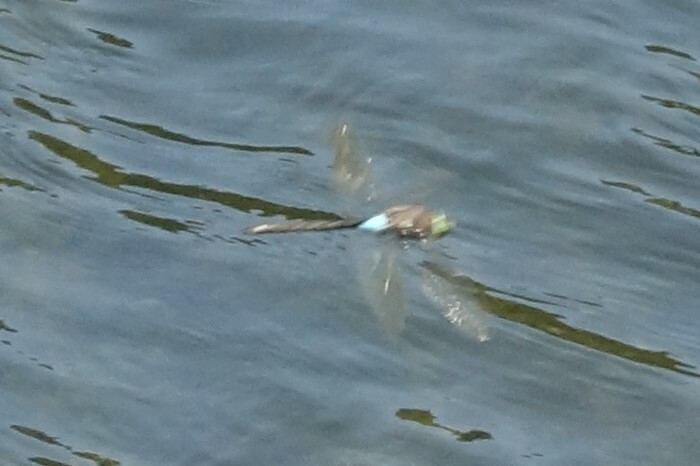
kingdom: Animalia
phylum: Arthropoda
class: Insecta
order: Odonata
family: Aeshnidae
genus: Anax
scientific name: Anax parthenope
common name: Lesser emperor
